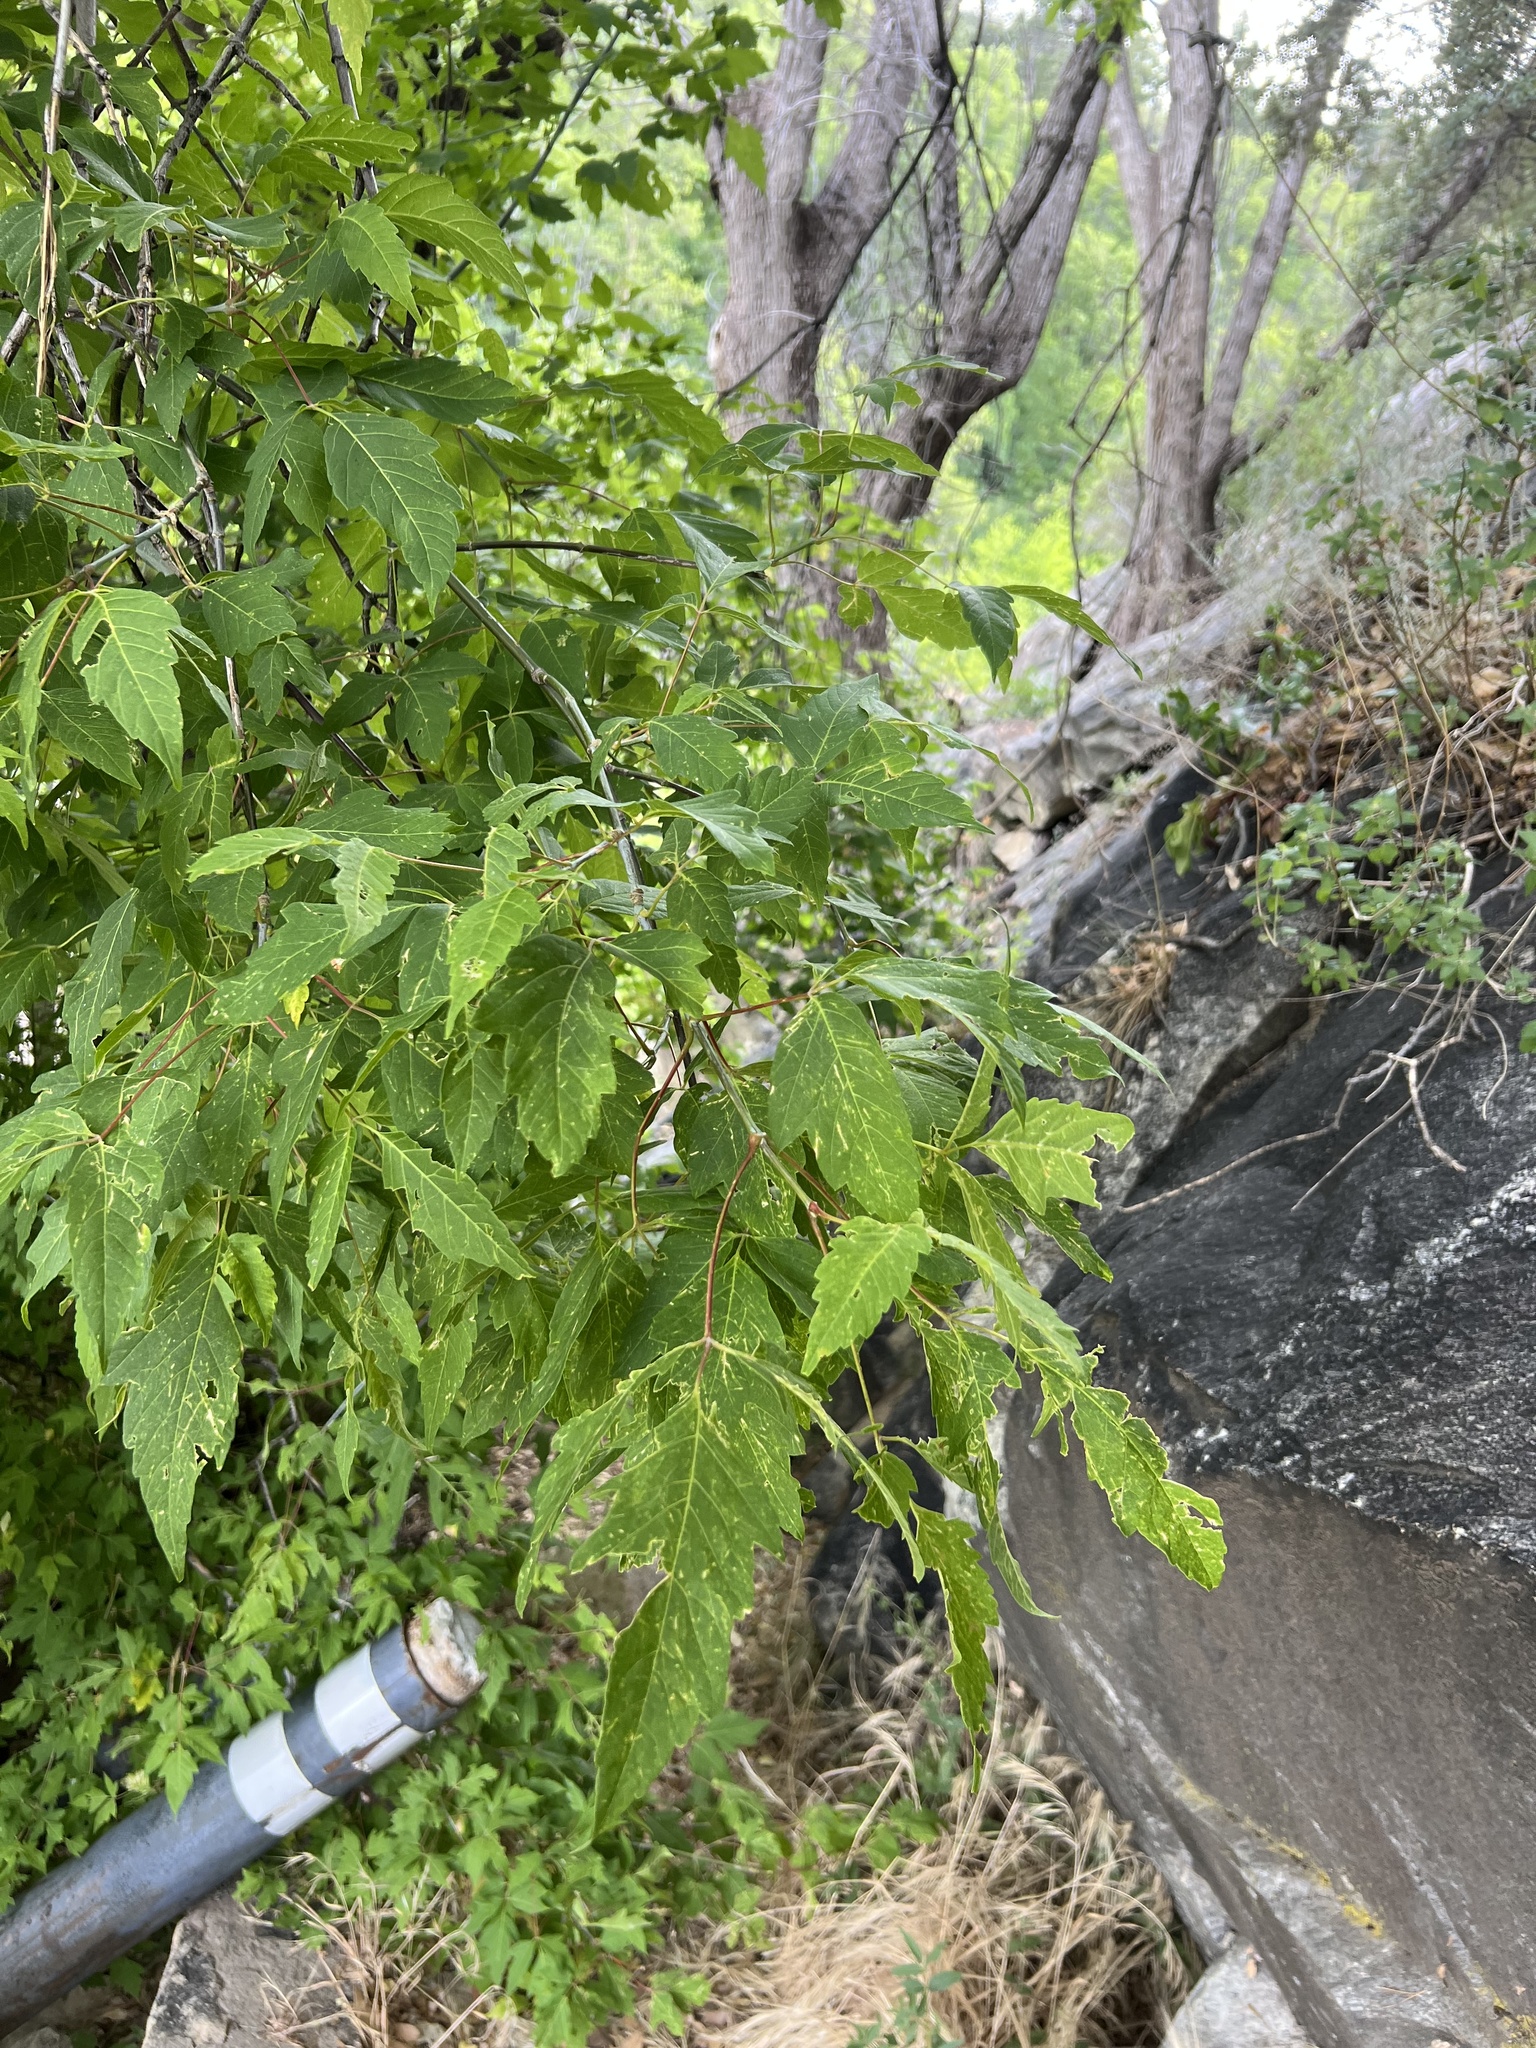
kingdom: Plantae
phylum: Tracheophyta
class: Magnoliopsida
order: Sapindales
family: Sapindaceae
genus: Acer
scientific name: Acer negundo
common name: Ashleaf maple
